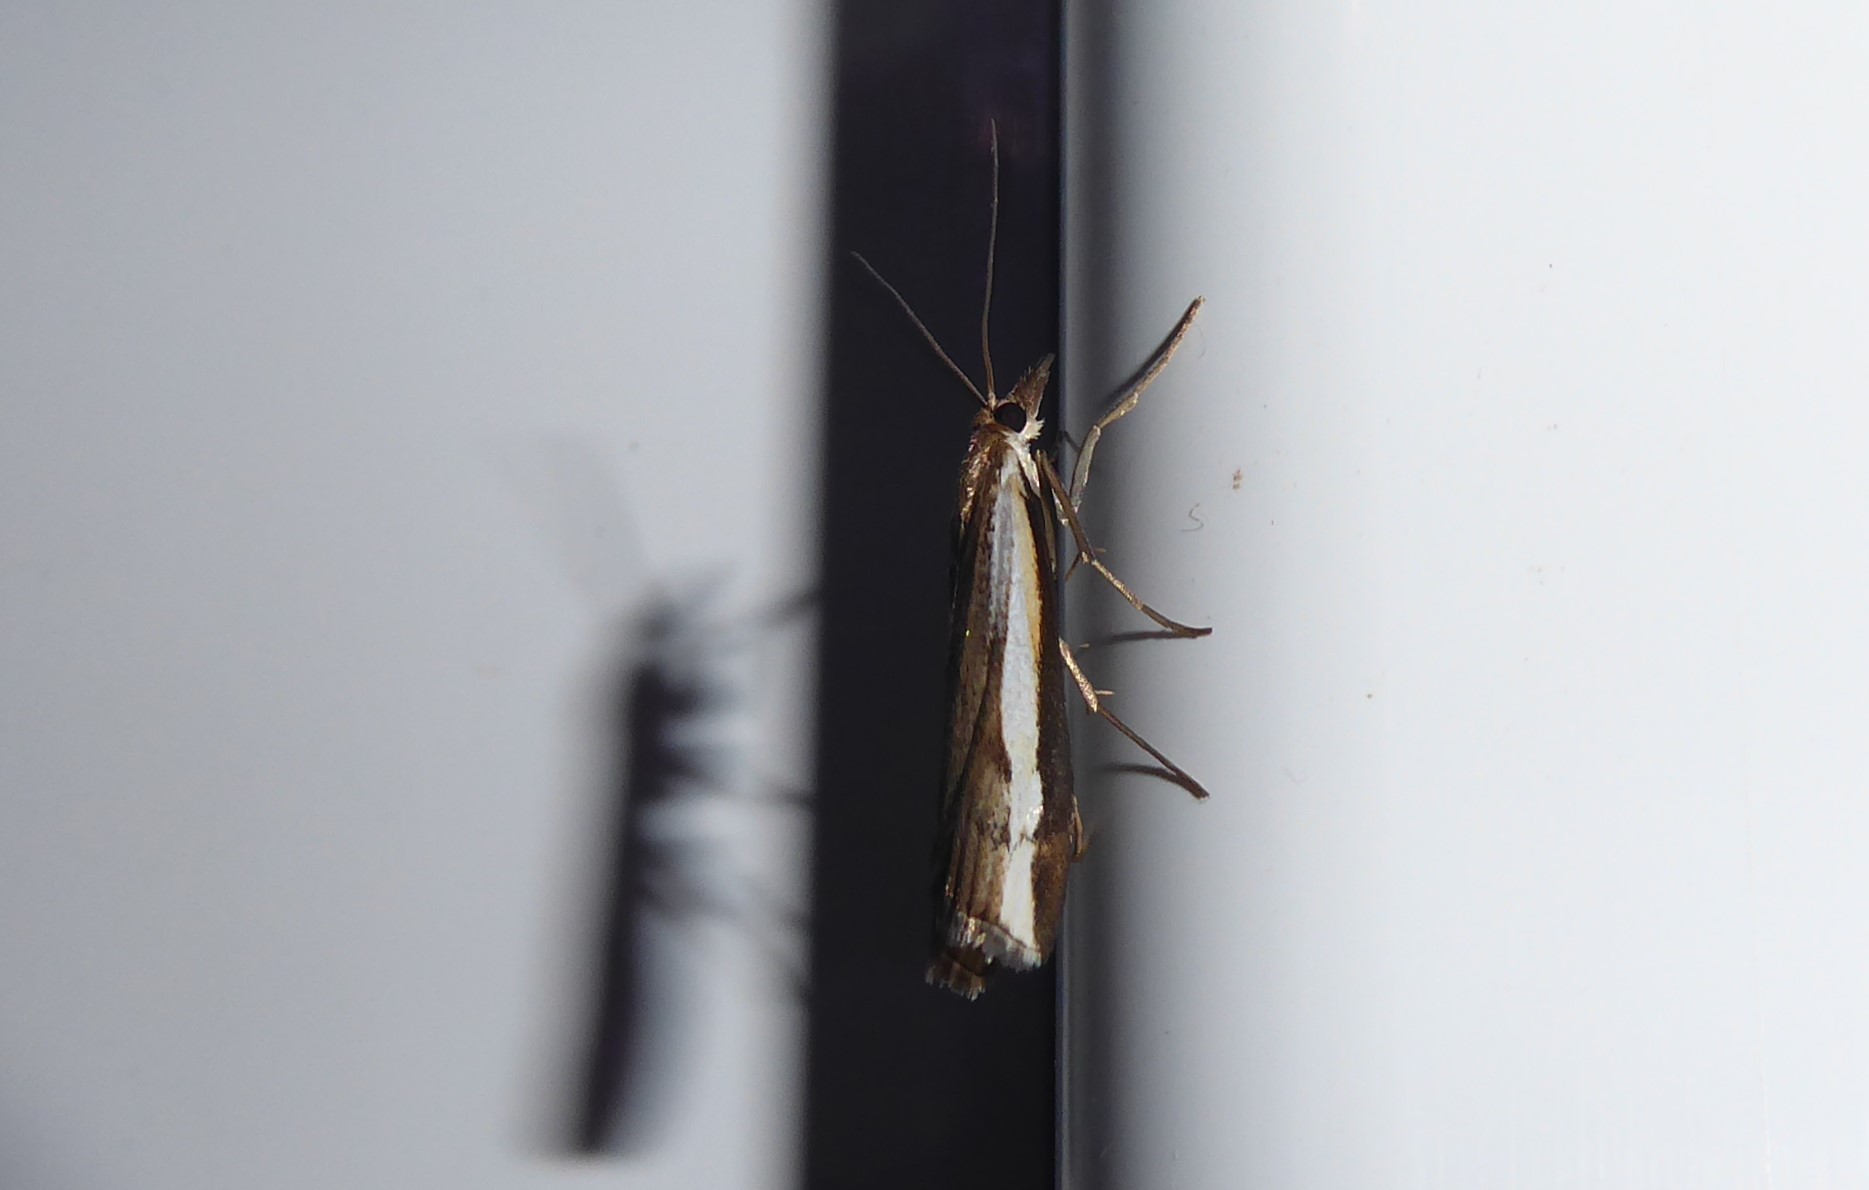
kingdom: Animalia
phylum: Arthropoda
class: Insecta
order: Lepidoptera
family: Crambidae
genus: Orocrambus
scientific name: Orocrambus flexuosellus
